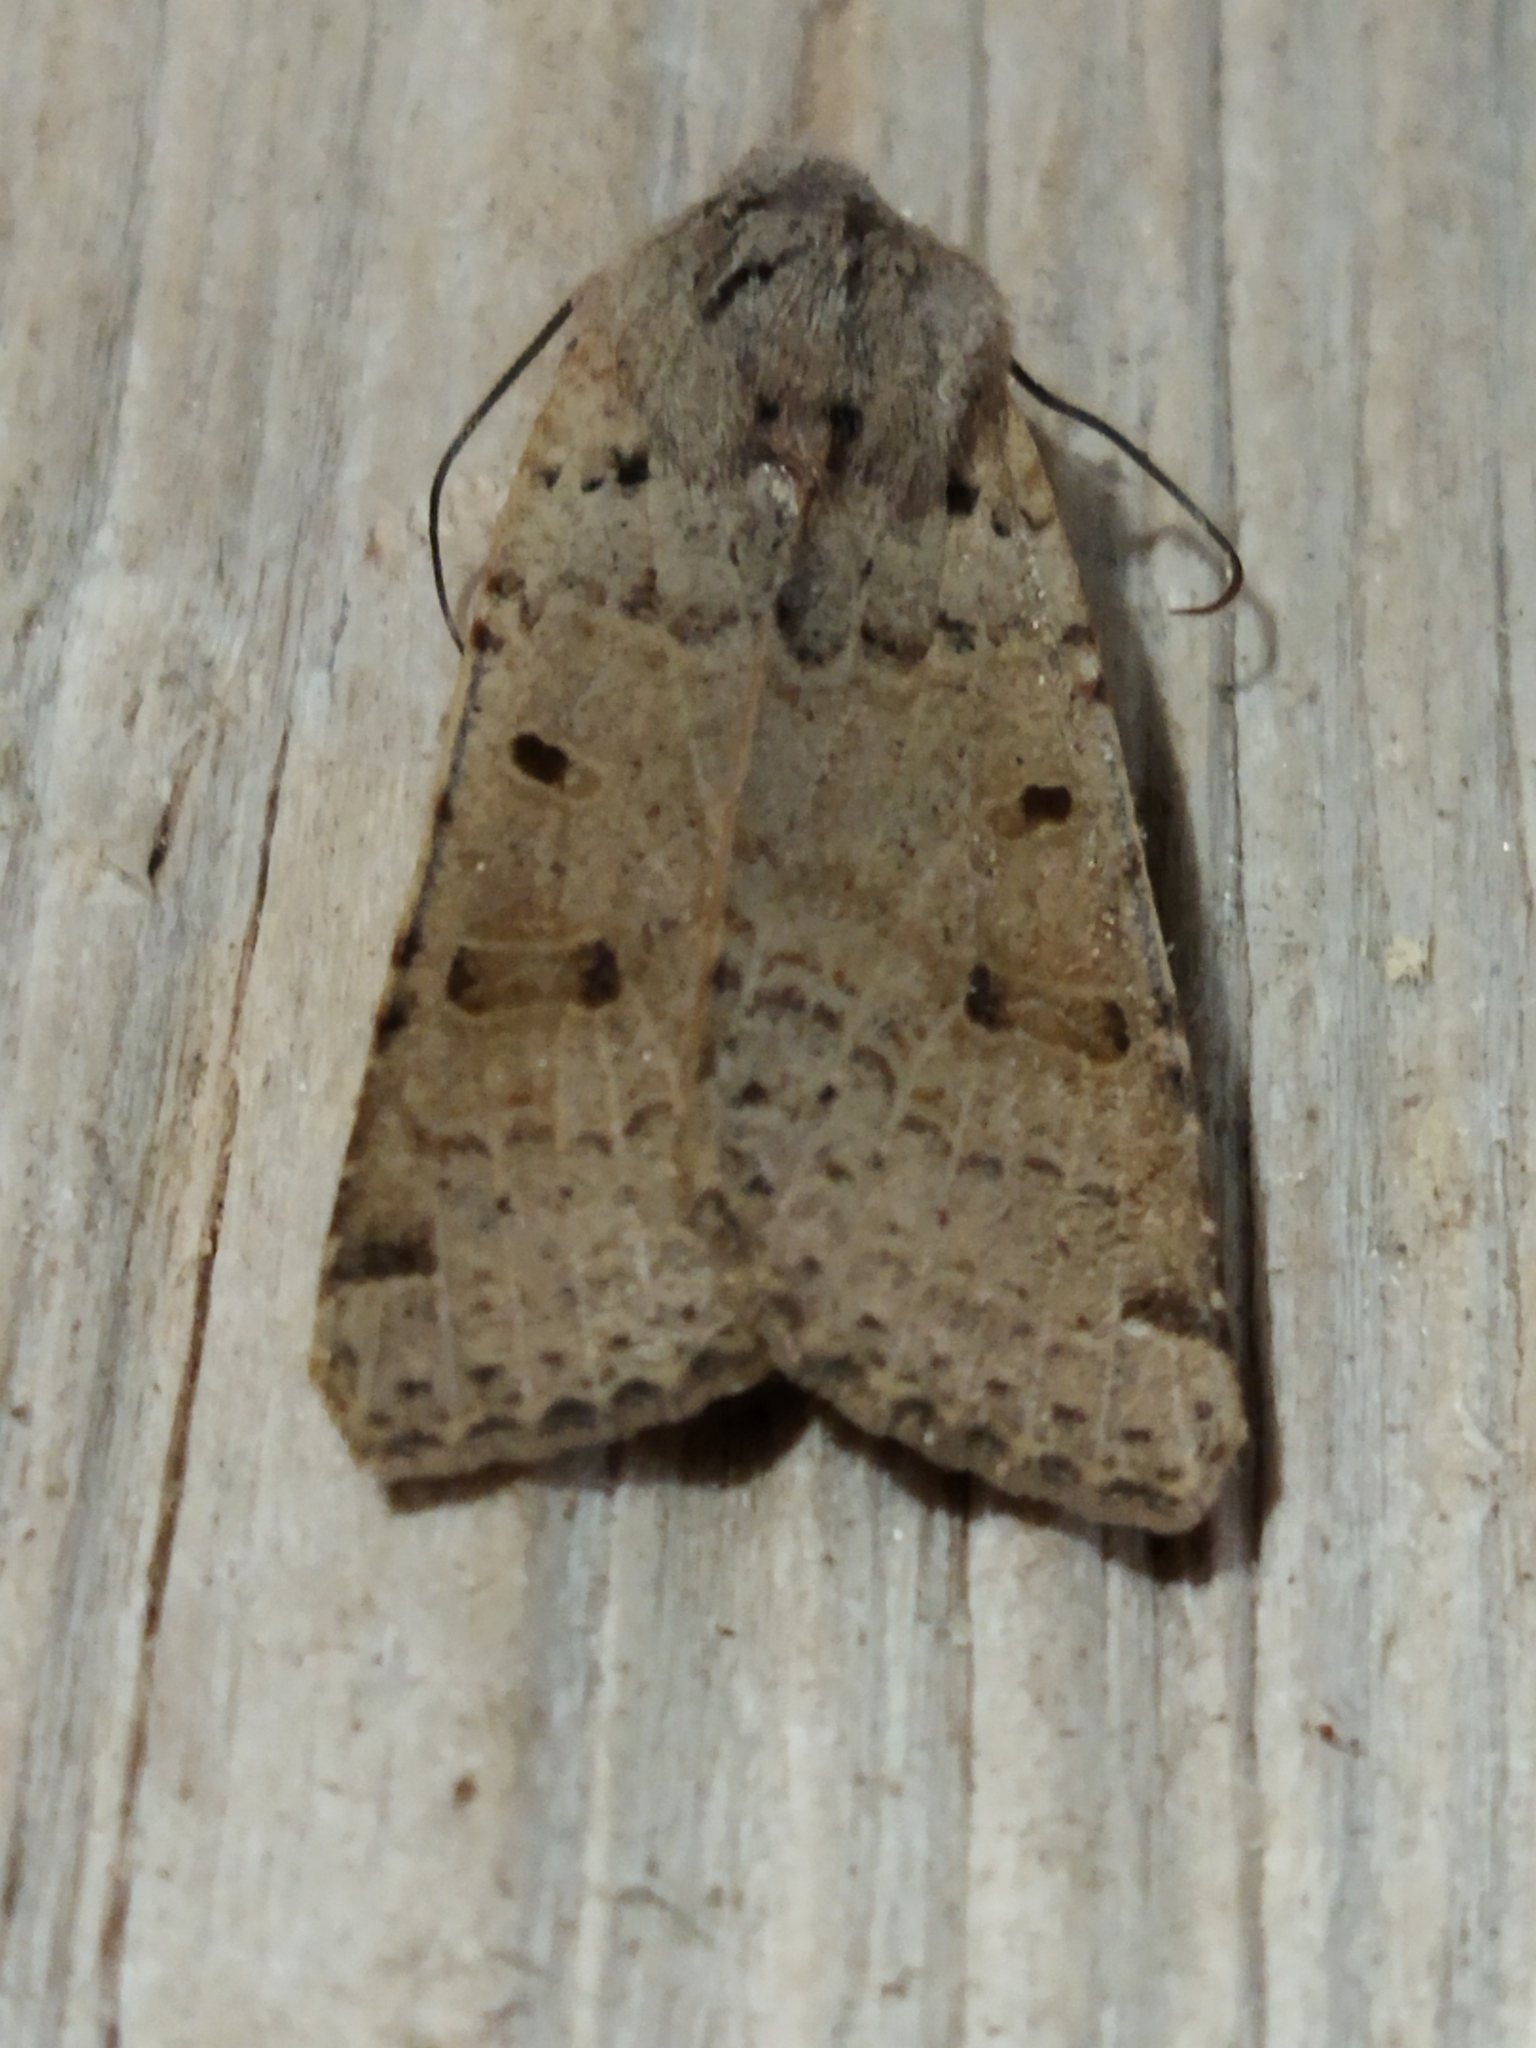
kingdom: Animalia
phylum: Arthropoda
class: Insecta
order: Lepidoptera
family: Noctuidae
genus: Agrochola
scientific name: Agrochola lychnidis
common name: Beaded chestnut
